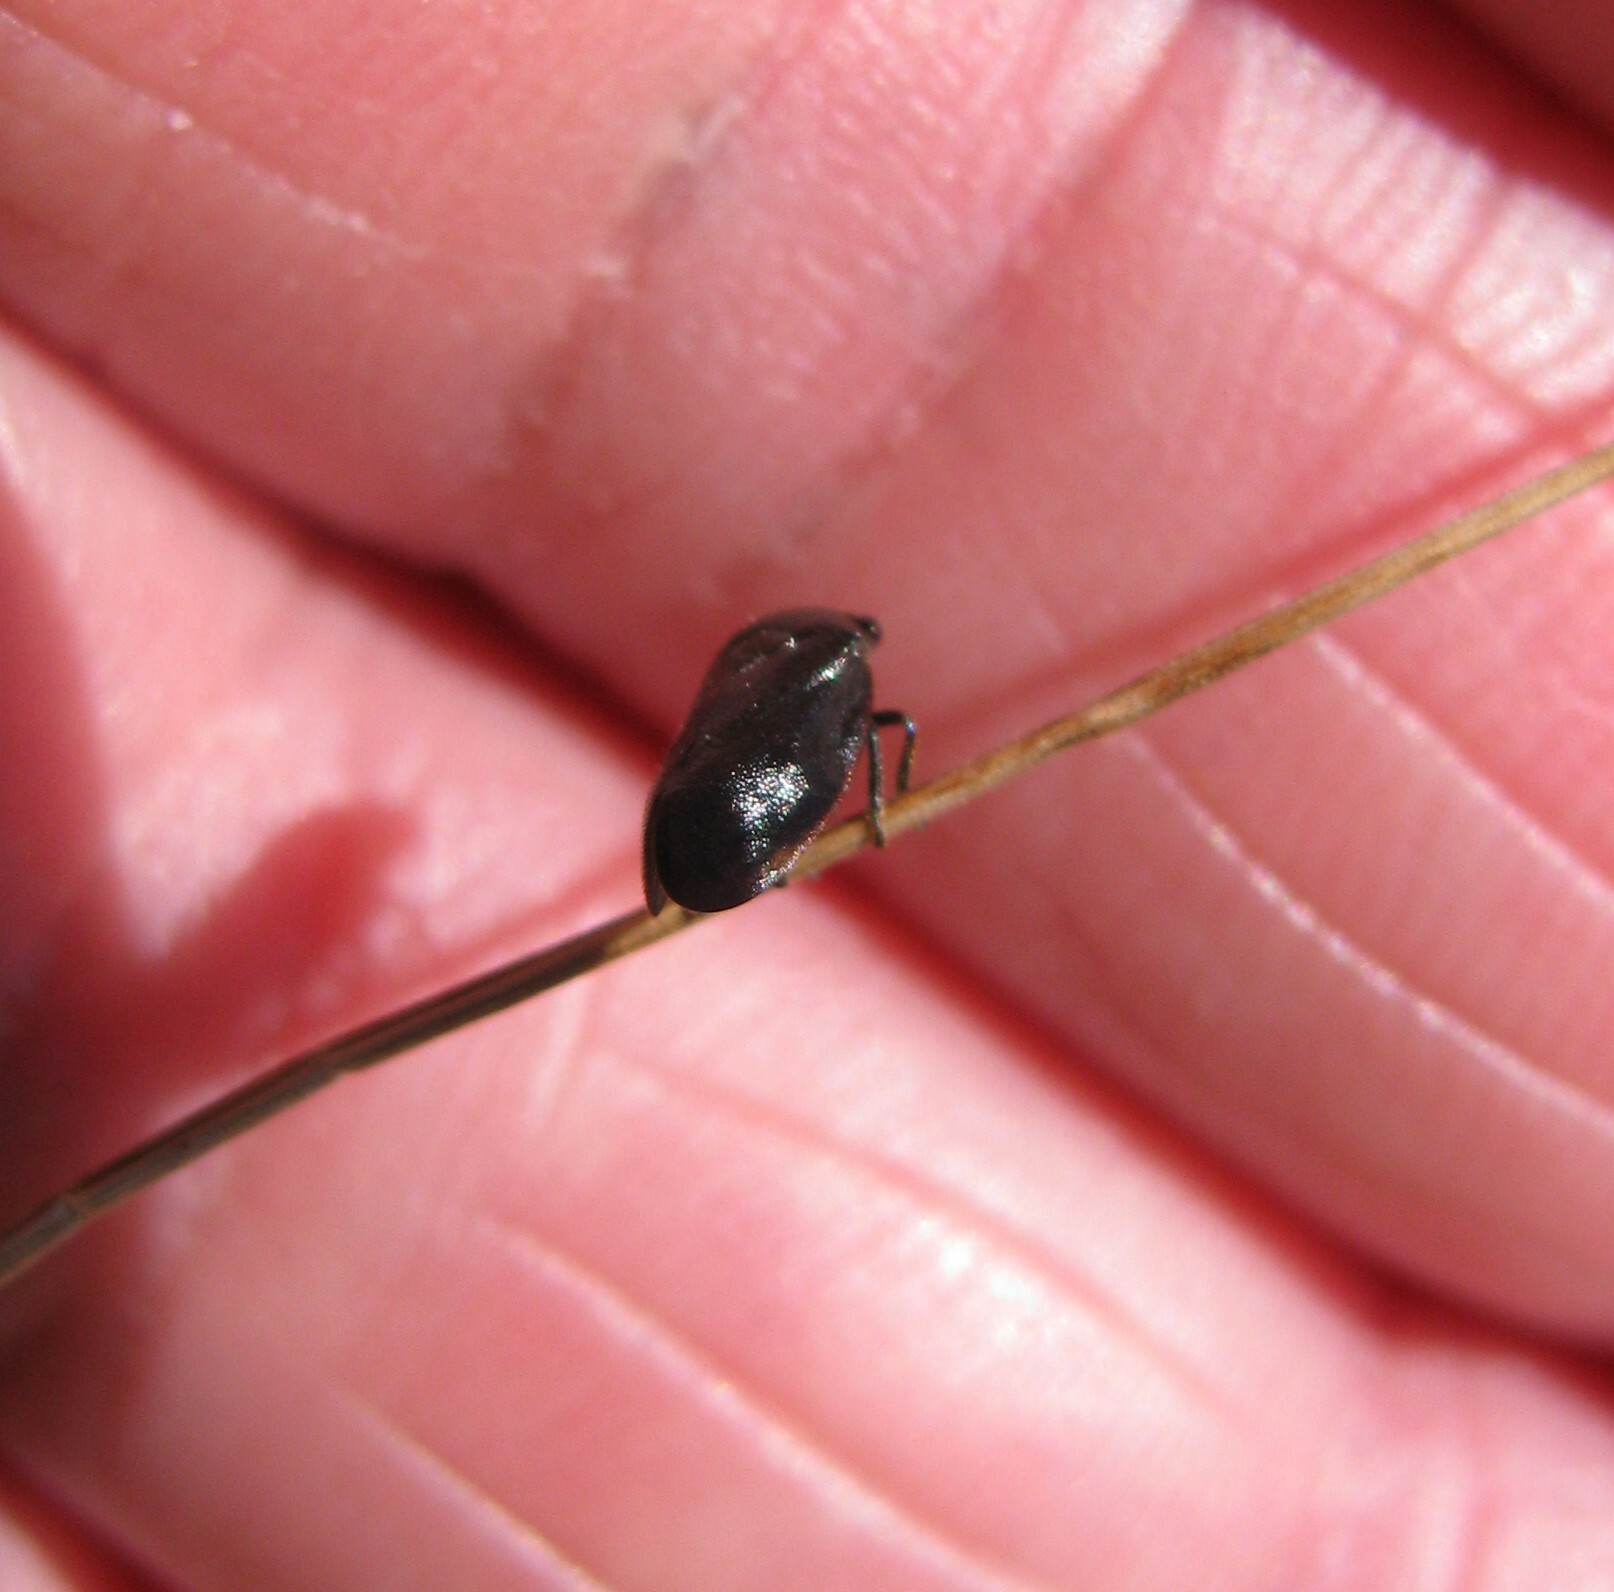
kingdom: Animalia
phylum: Arthropoda
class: Insecta
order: Hemiptera
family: Cercopidae
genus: Cercopicesa
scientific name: Cercopicesa tasmaniae
